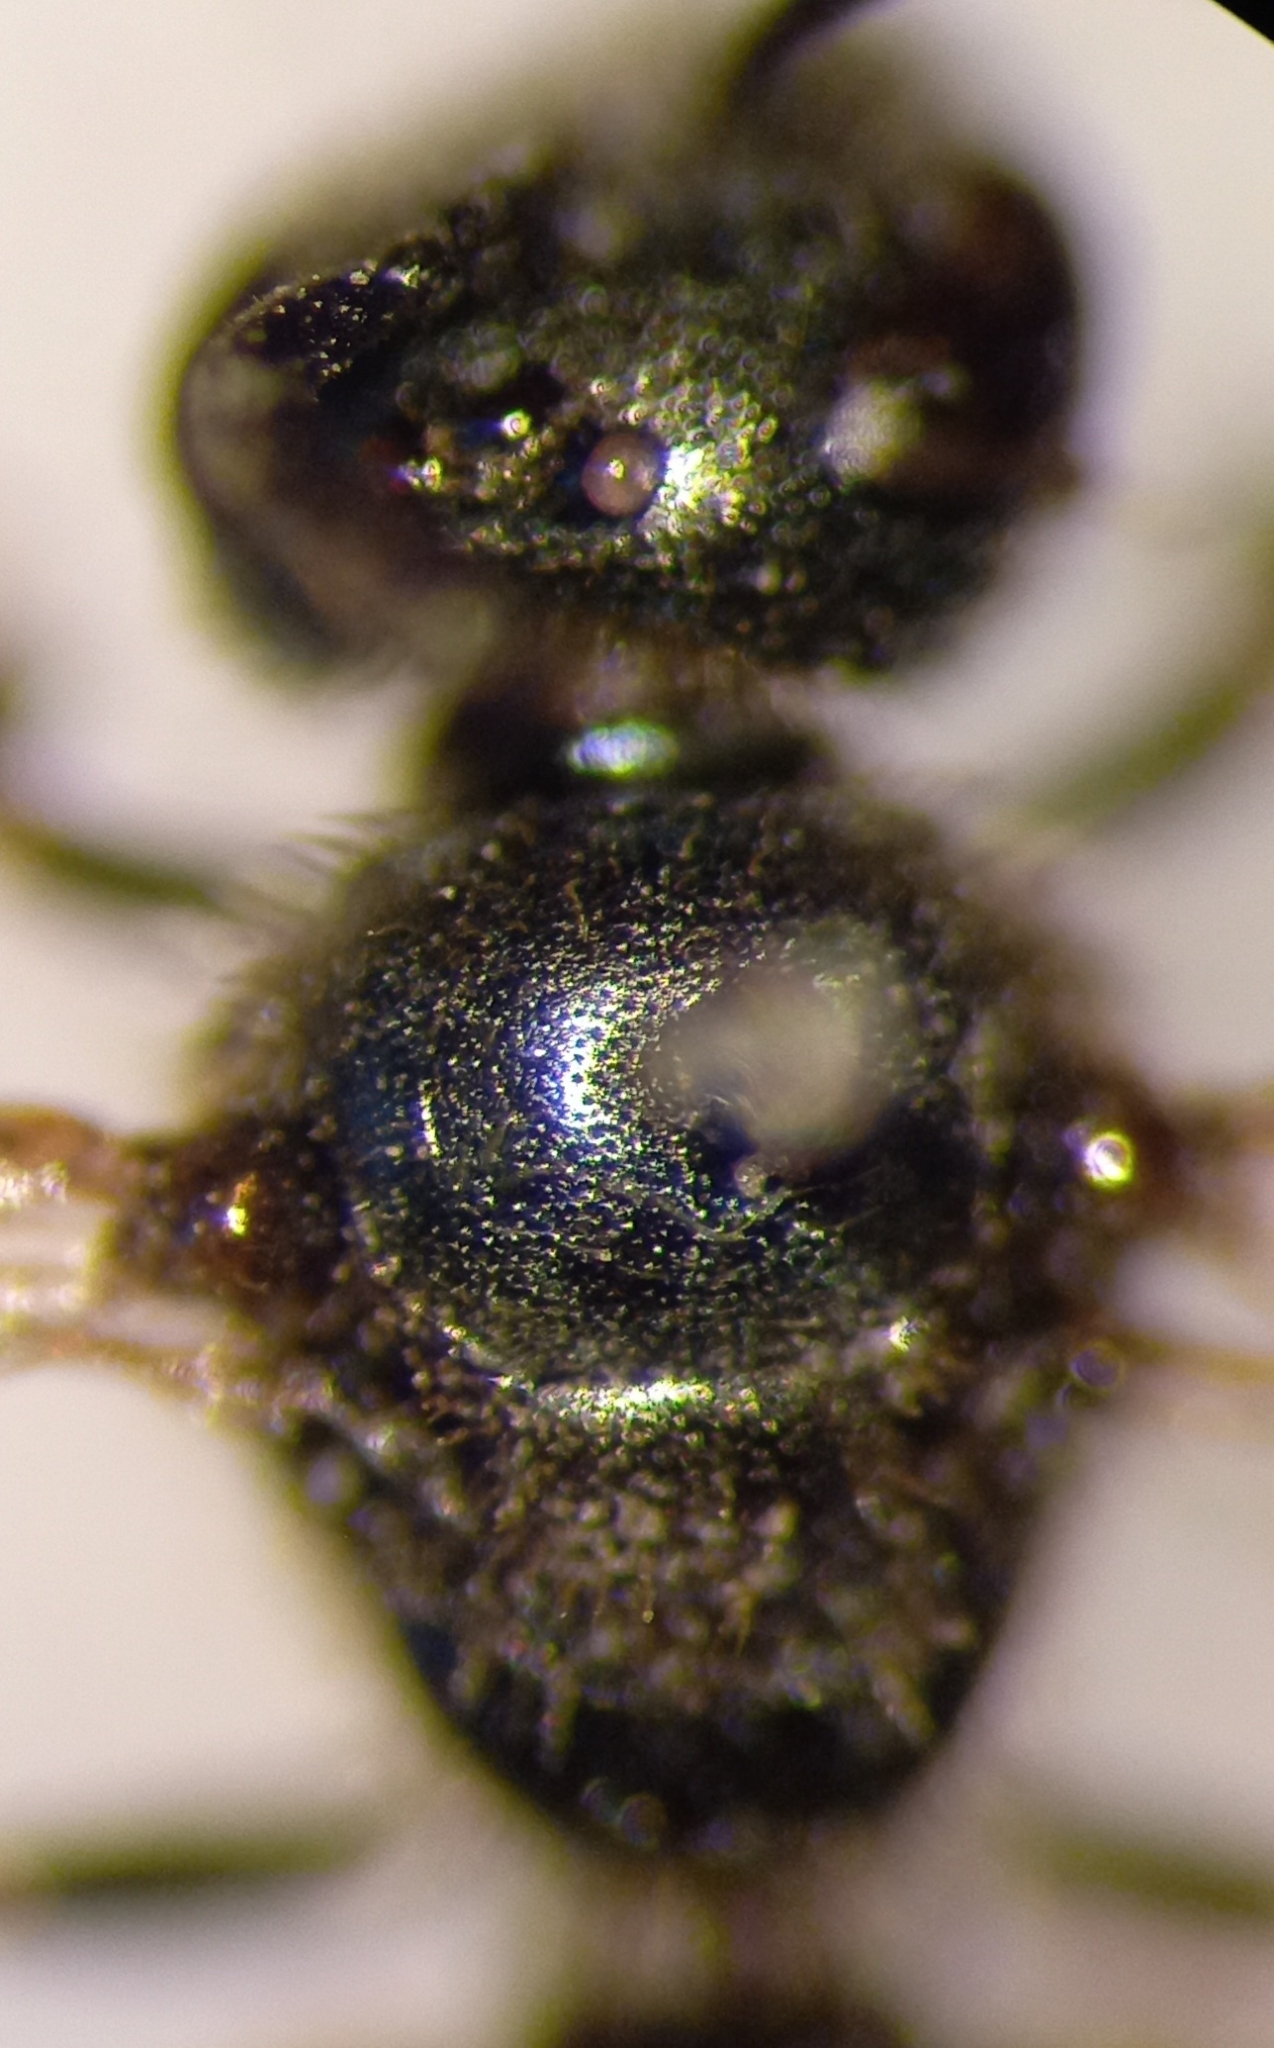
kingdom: Animalia
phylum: Arthropoda
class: Insecta
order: Hymenoptera
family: Halictidae
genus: Lasioglossum
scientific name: Lasioglossum morio
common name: Green furrow bee
